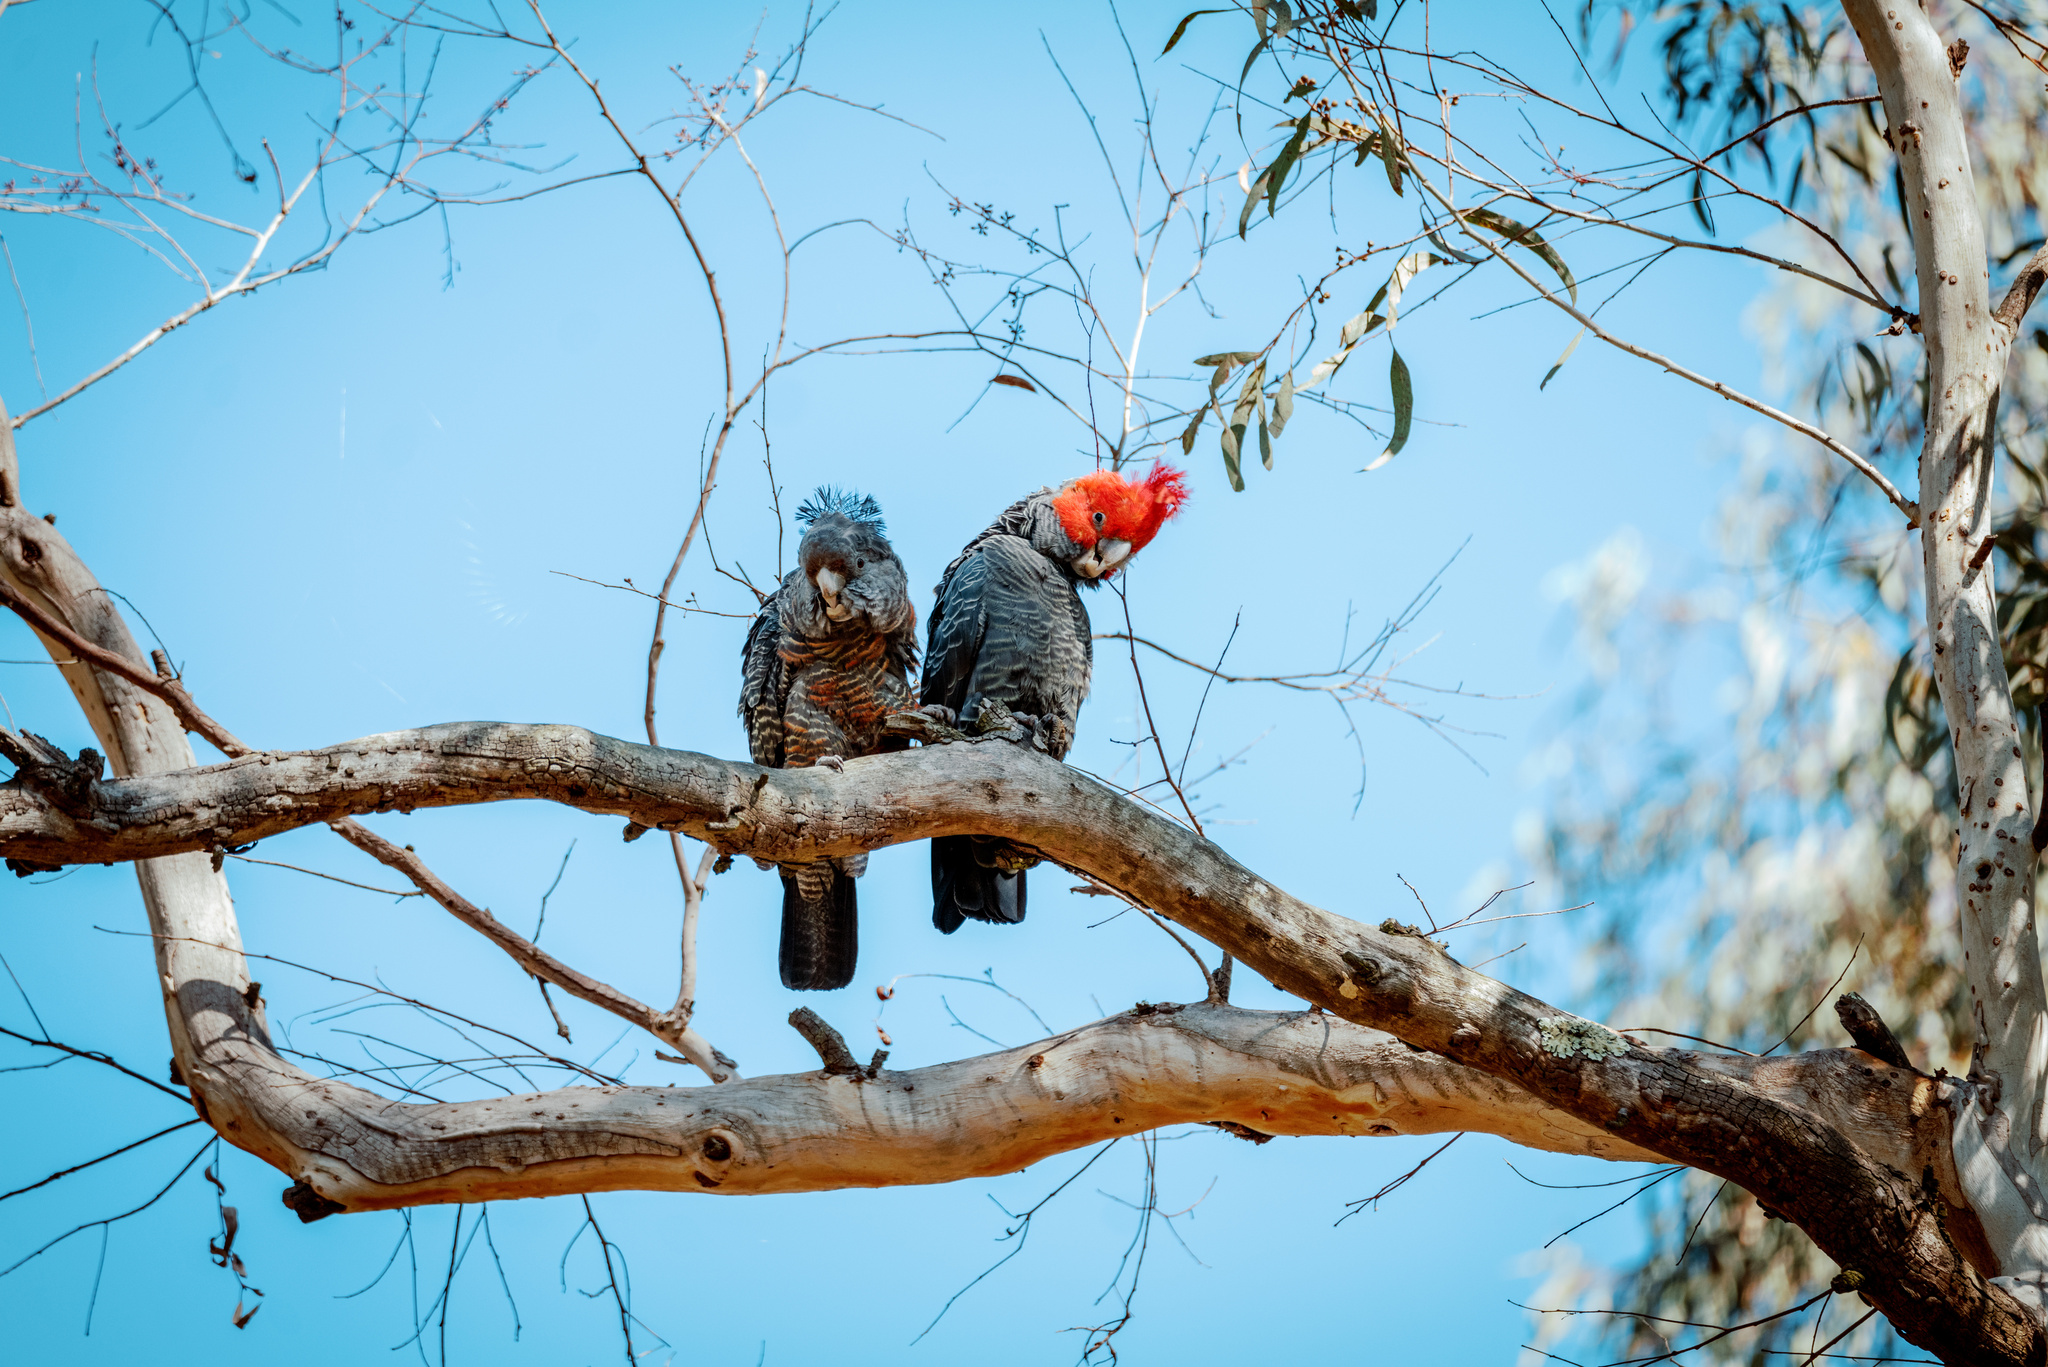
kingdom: Animalia
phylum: Chordata
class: Aves
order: Psittaciformes
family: Psittacidae
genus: Callocephalon
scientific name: Callocephalon fimbriatum
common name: Gang-gang cockatoo
